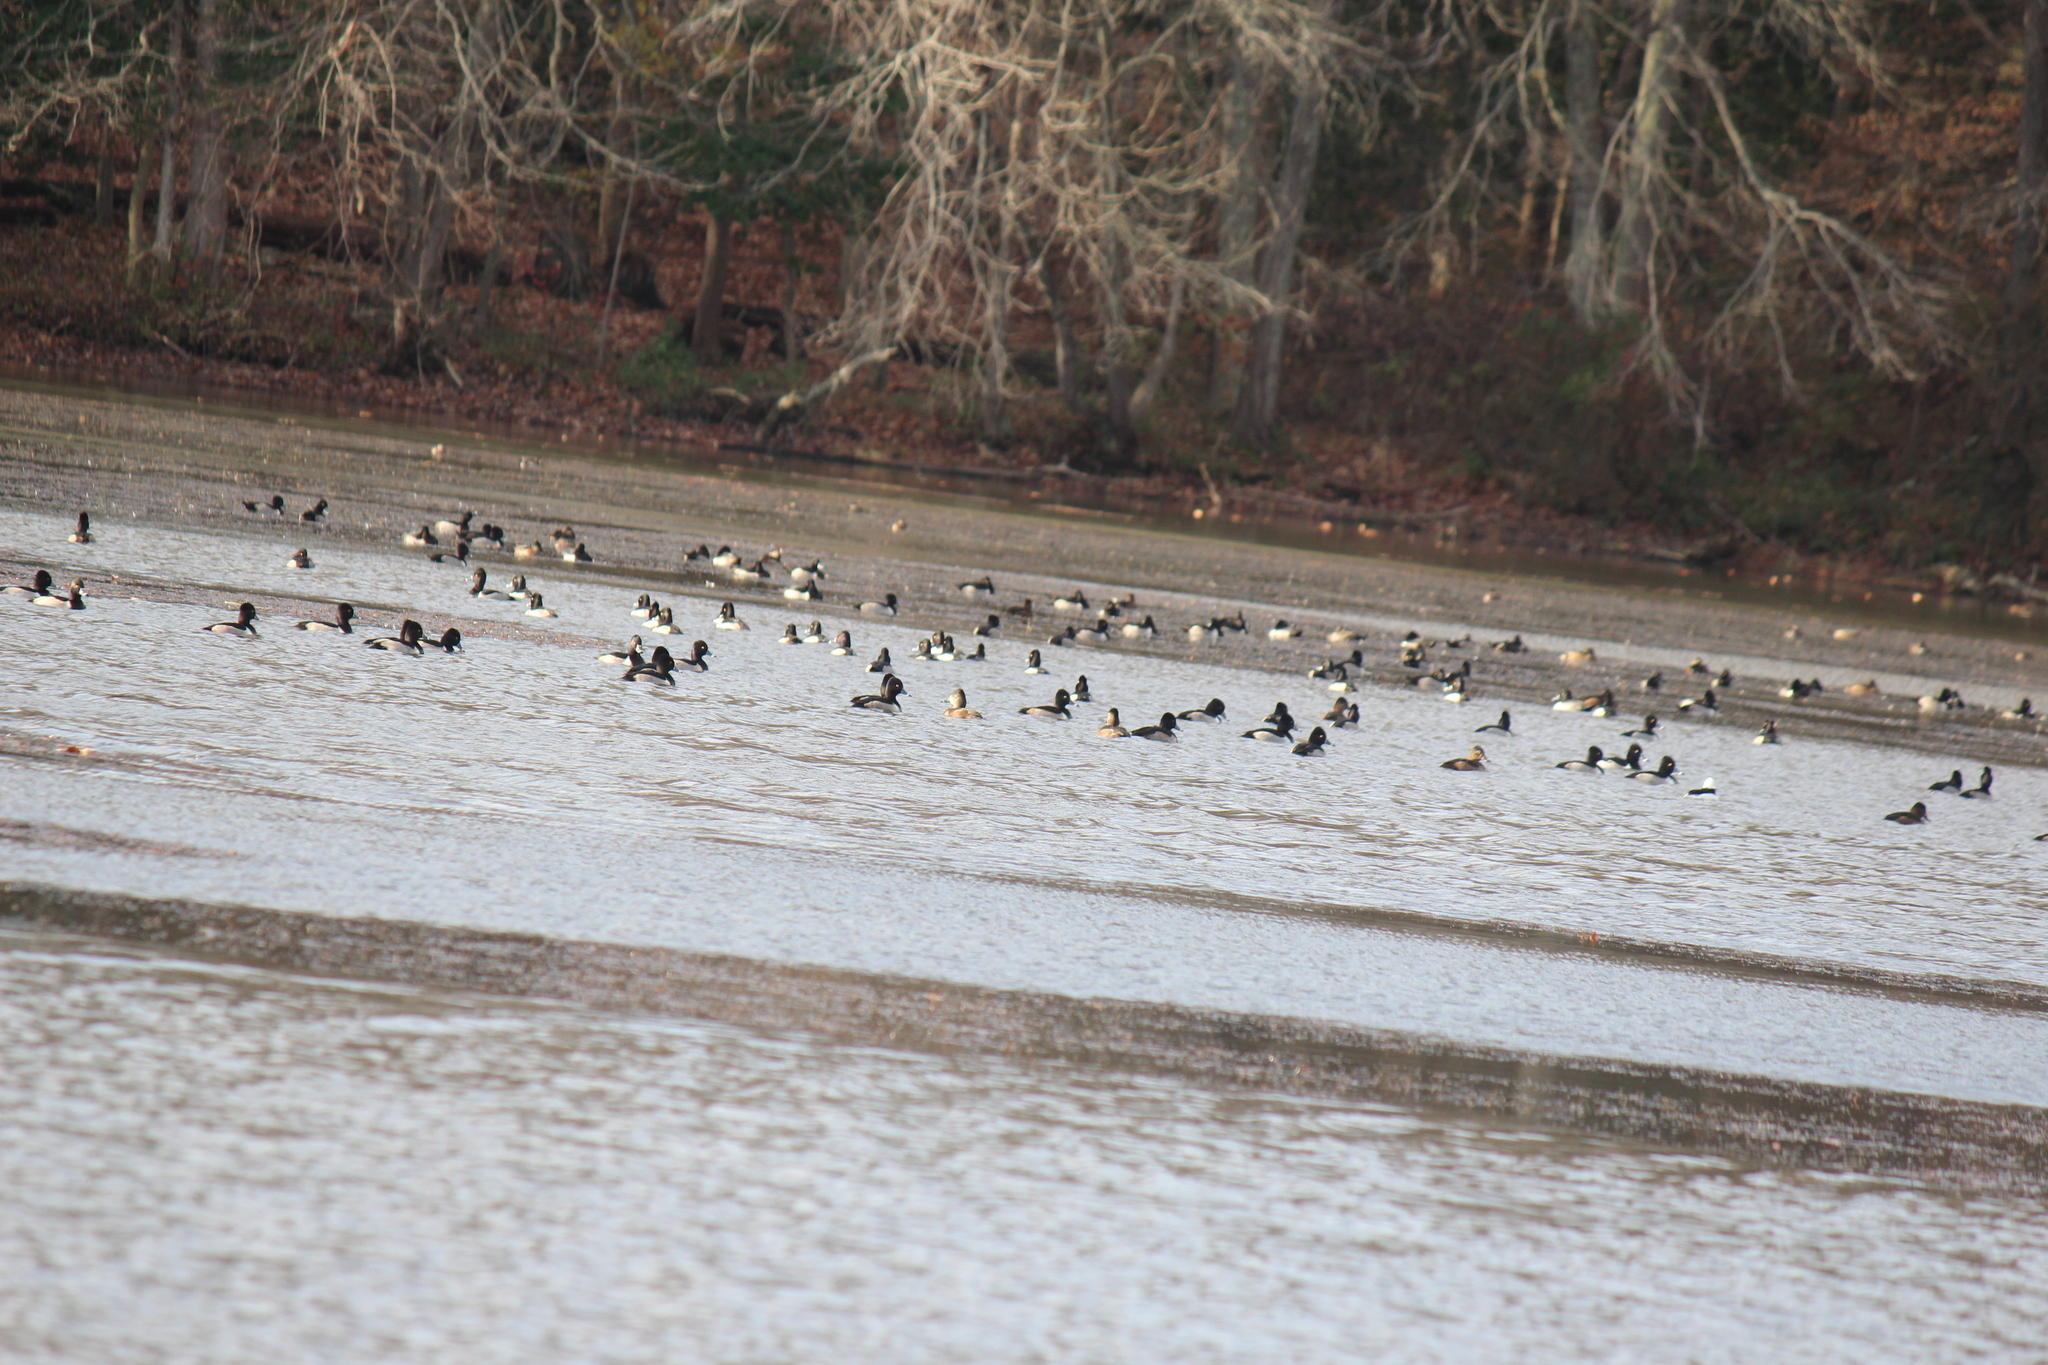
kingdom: Animalia
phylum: Chordata
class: Aves
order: Anseriformes
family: Anatidae
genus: Aythya
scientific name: Aythya collaris
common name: Ring-necked duck
